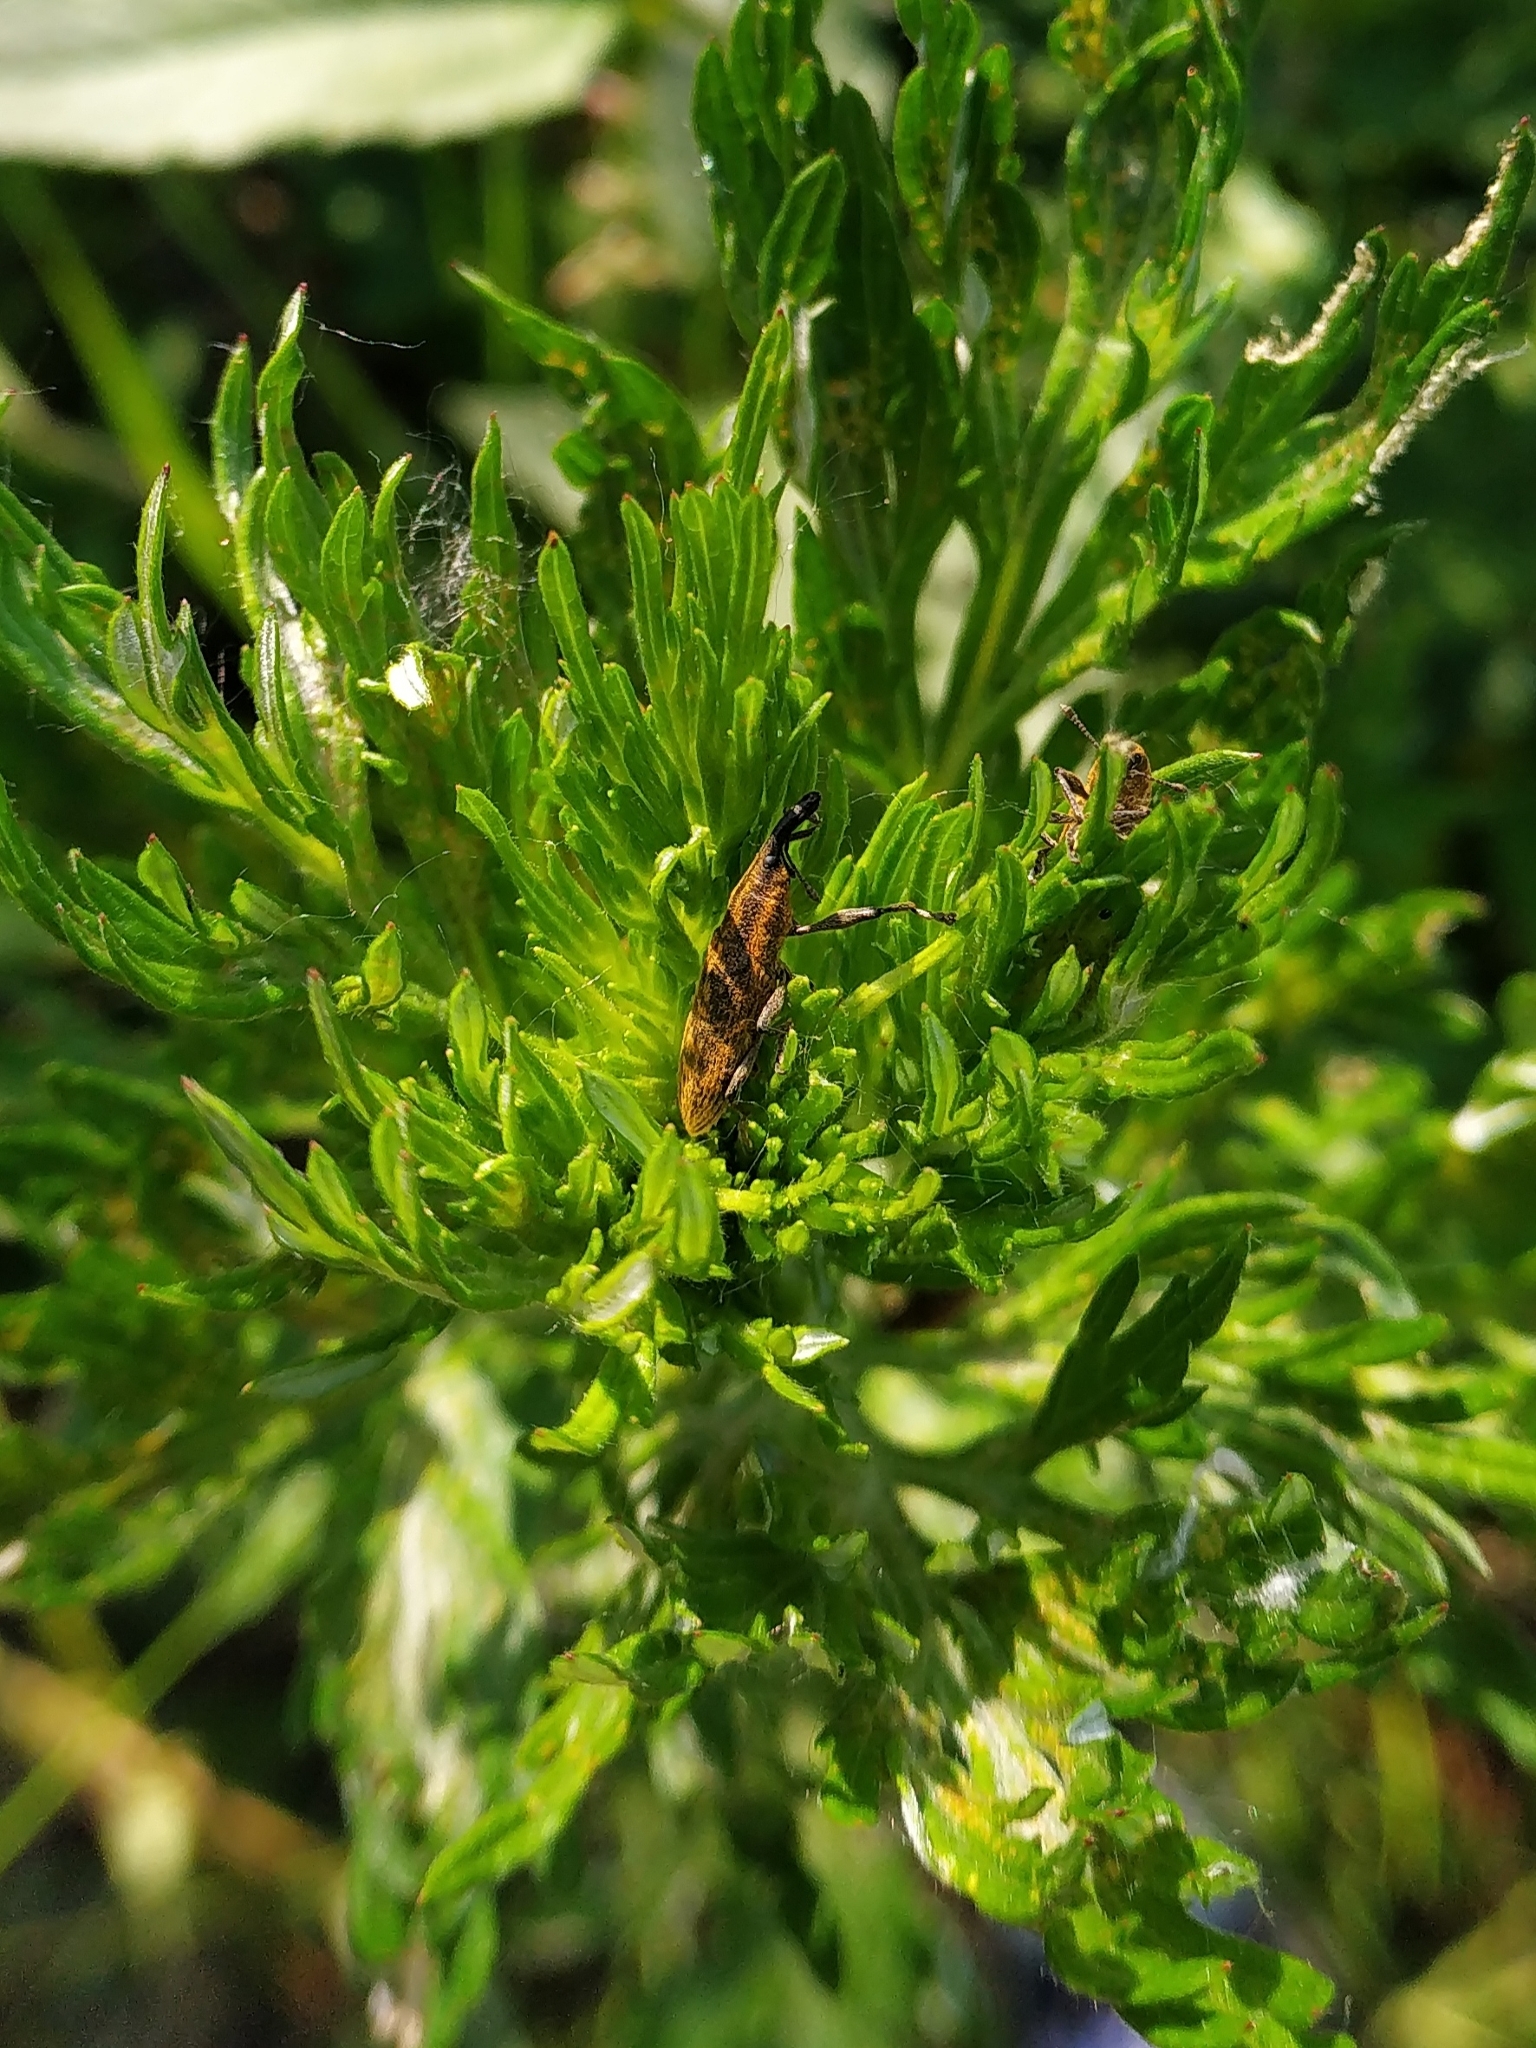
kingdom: Animalia
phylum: Arthropoda
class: Insecta
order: Coleoptera
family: Curculionidae
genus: Lixus
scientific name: Lixus fasciculatus
